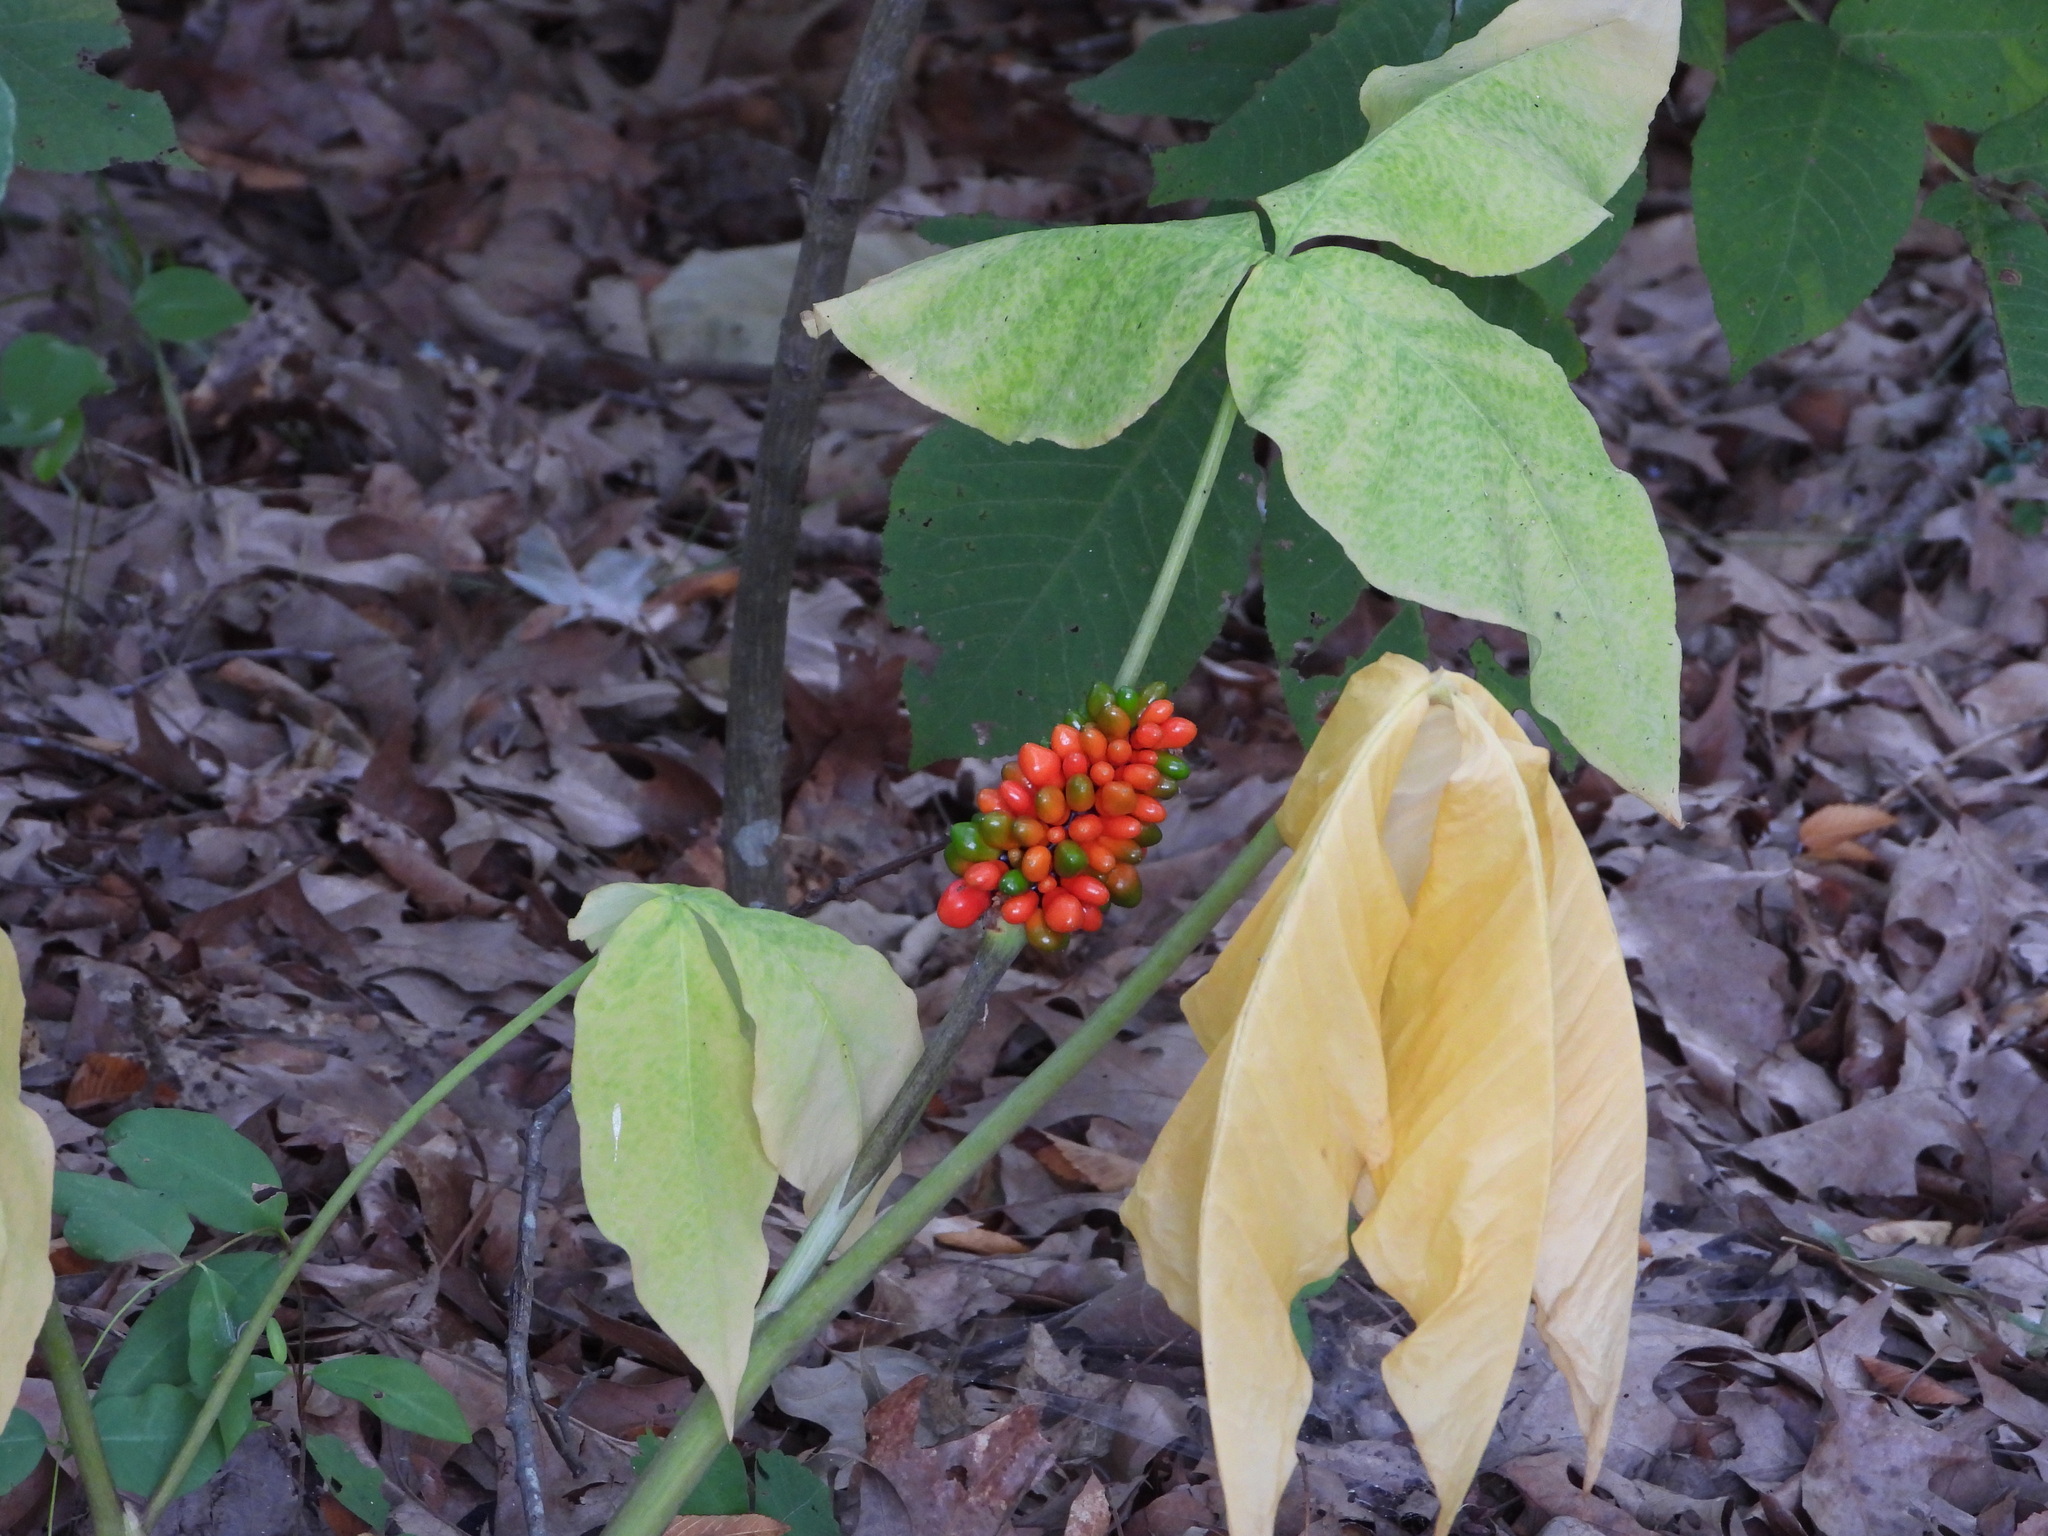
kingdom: Plantae
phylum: Tracheophyta
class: Liliopsida
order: Alismatales
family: Araceae
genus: Arisaema
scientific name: Arisaema triphyllum
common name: Jack-in-the-pulpit
